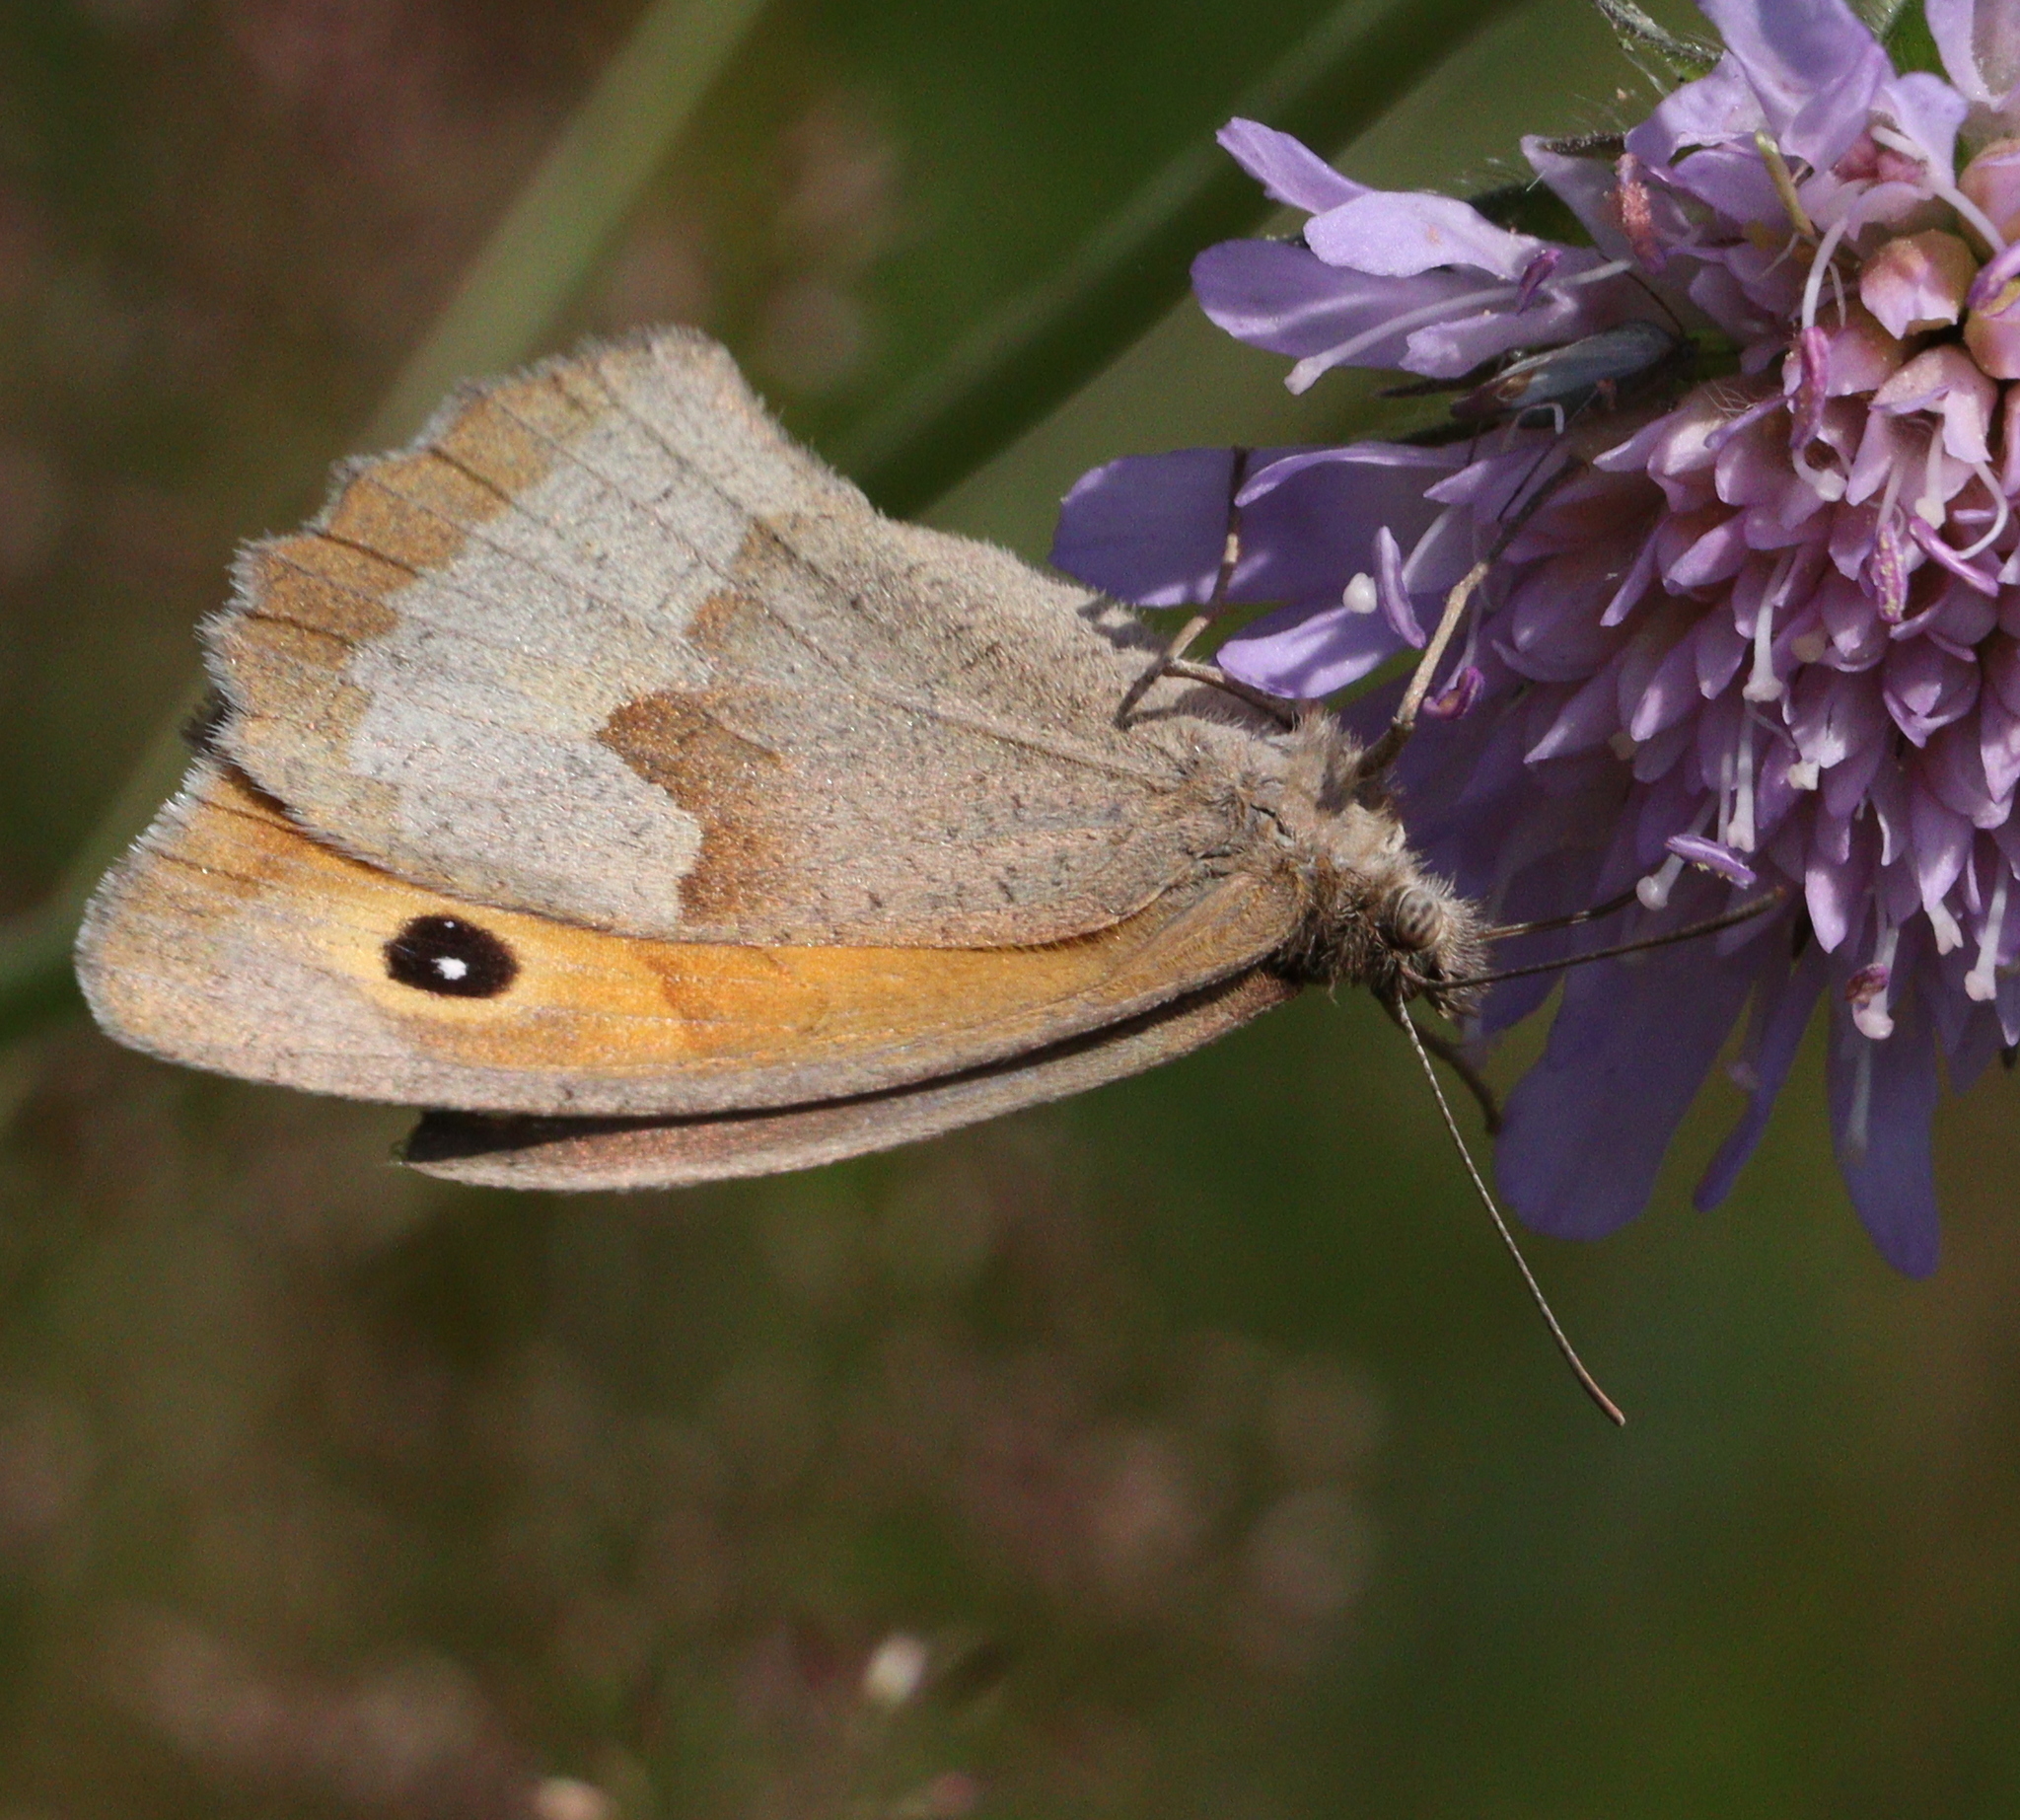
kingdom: Animalia
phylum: Arthropoda
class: Insecta
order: Lepidoptera
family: Nymphalidae
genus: Maniola
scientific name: Maniola jurtina
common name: Meadow brown
